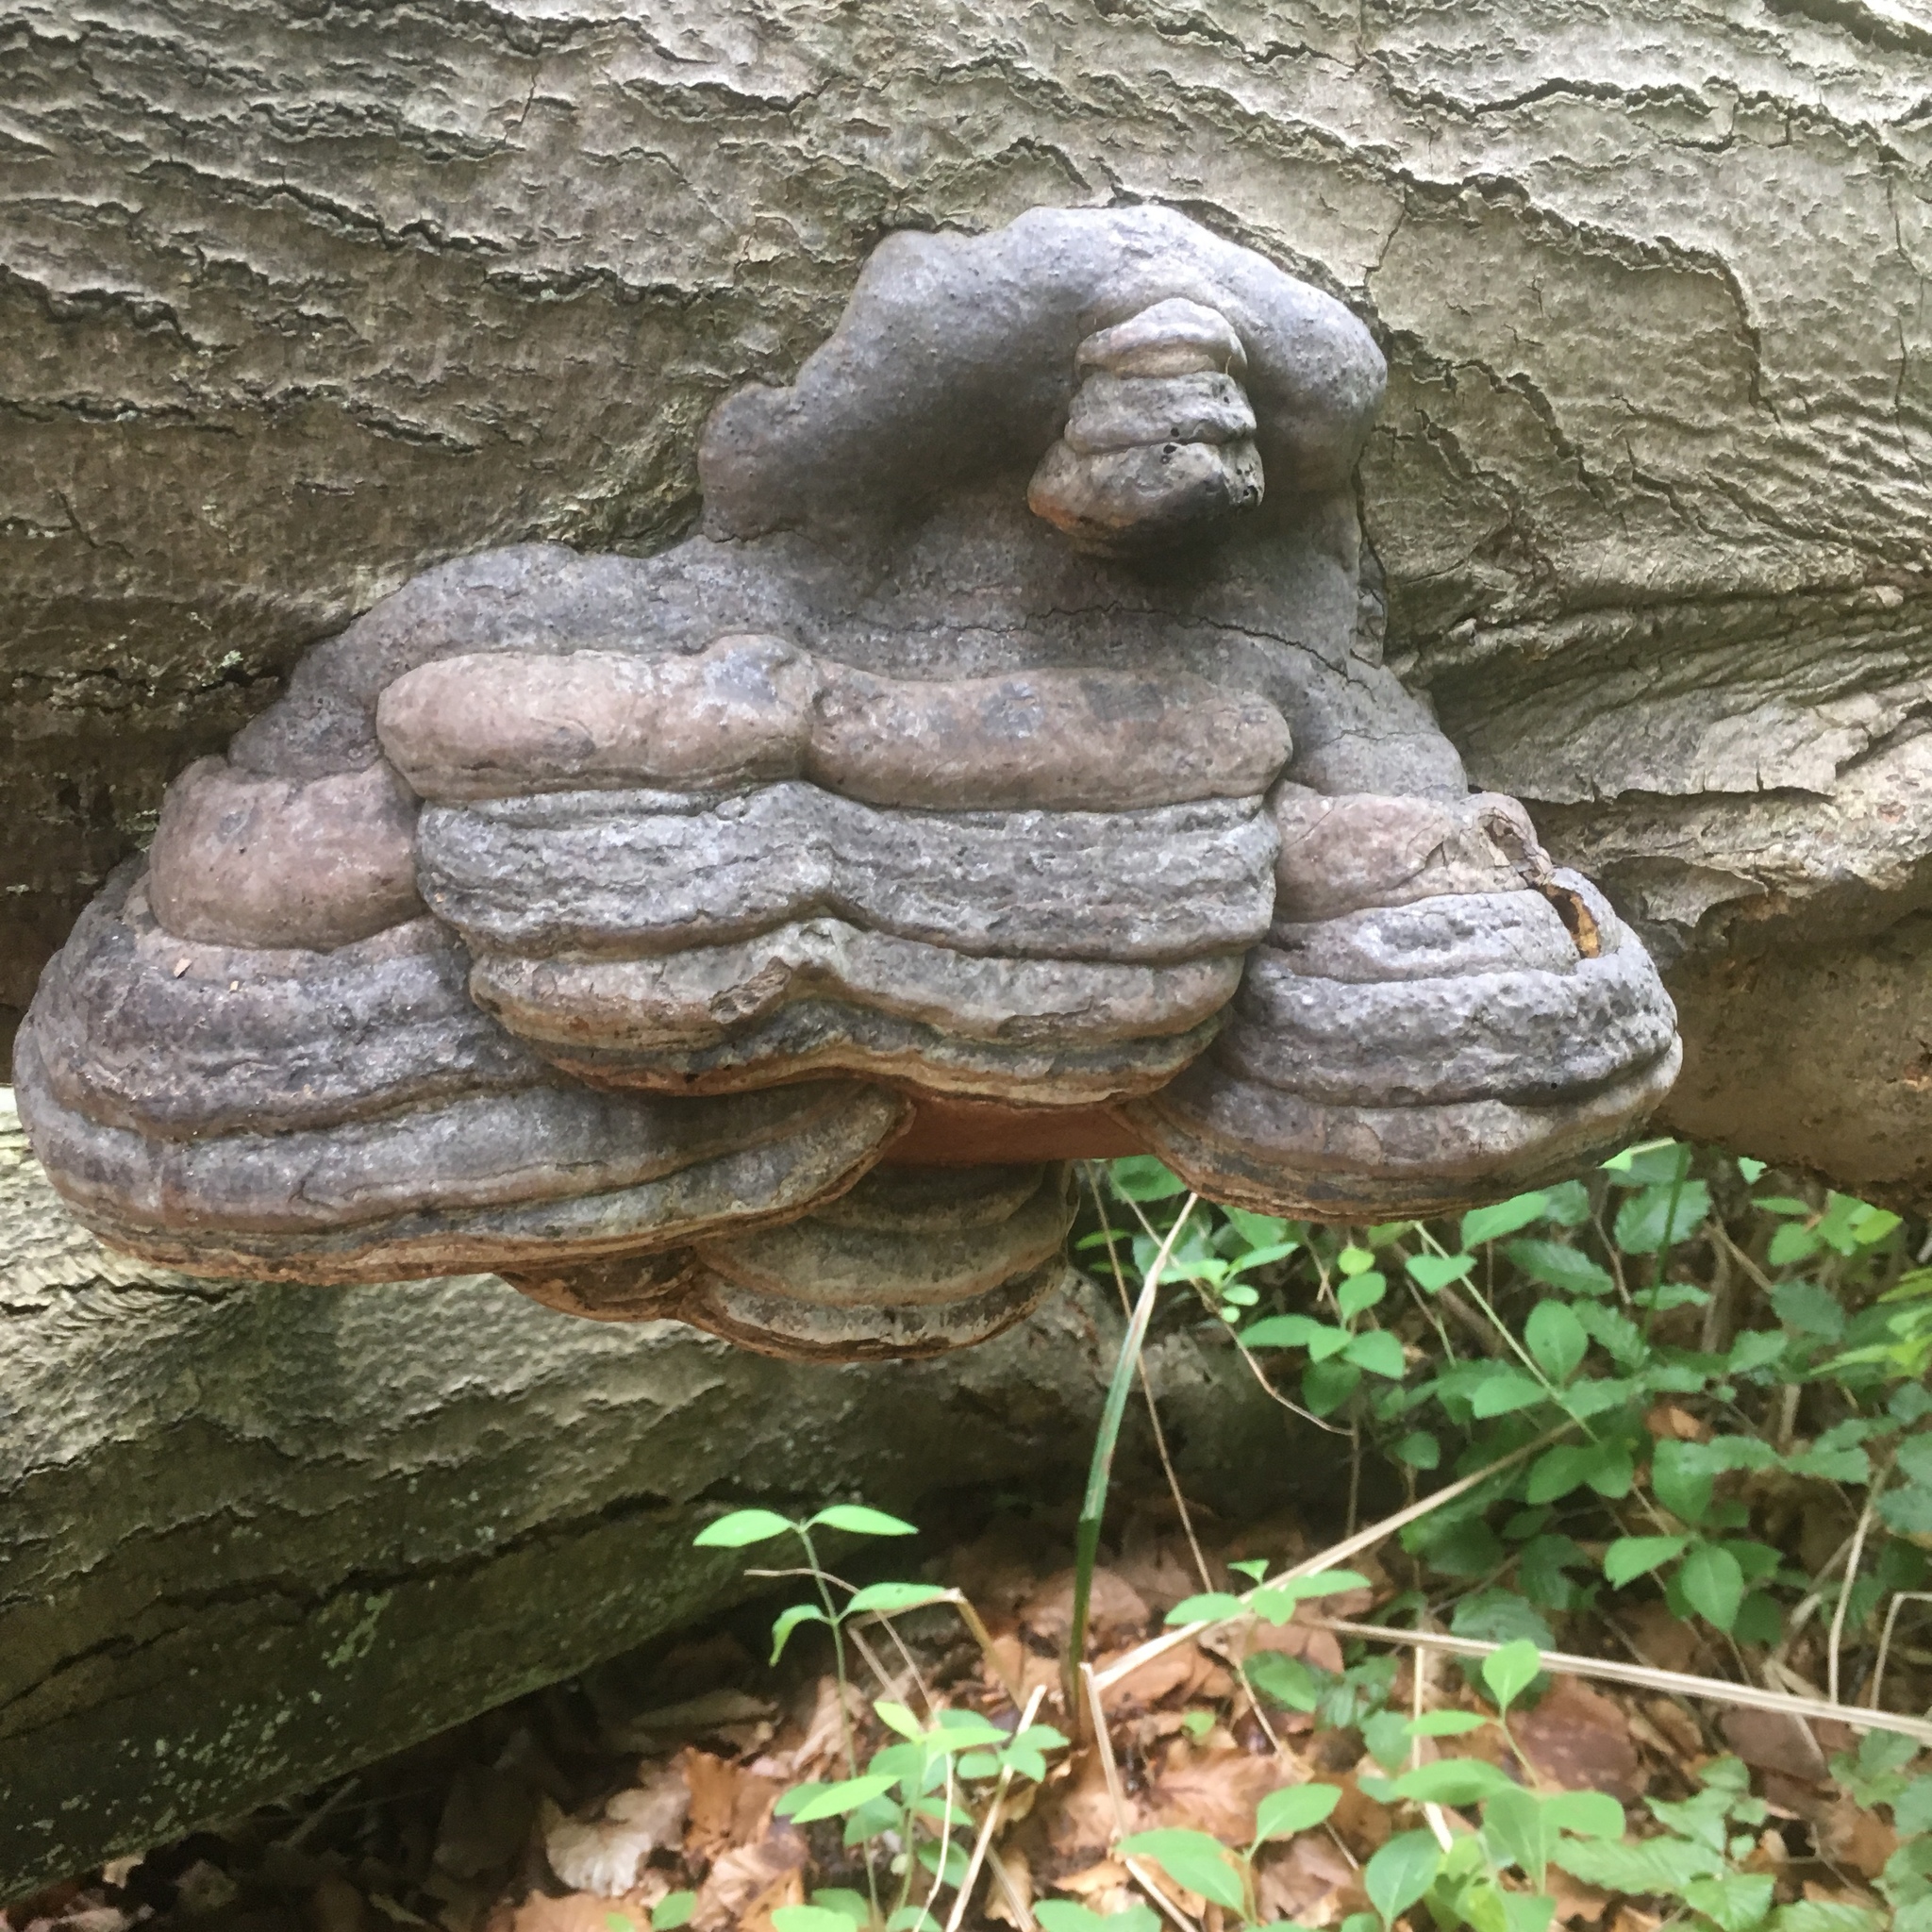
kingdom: Fungi
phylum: Basidiomycota
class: Agaricomycetes
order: Polyporales
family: Polyporaceae
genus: Fomes
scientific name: Fomes fomentarius
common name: Hoof fungus
